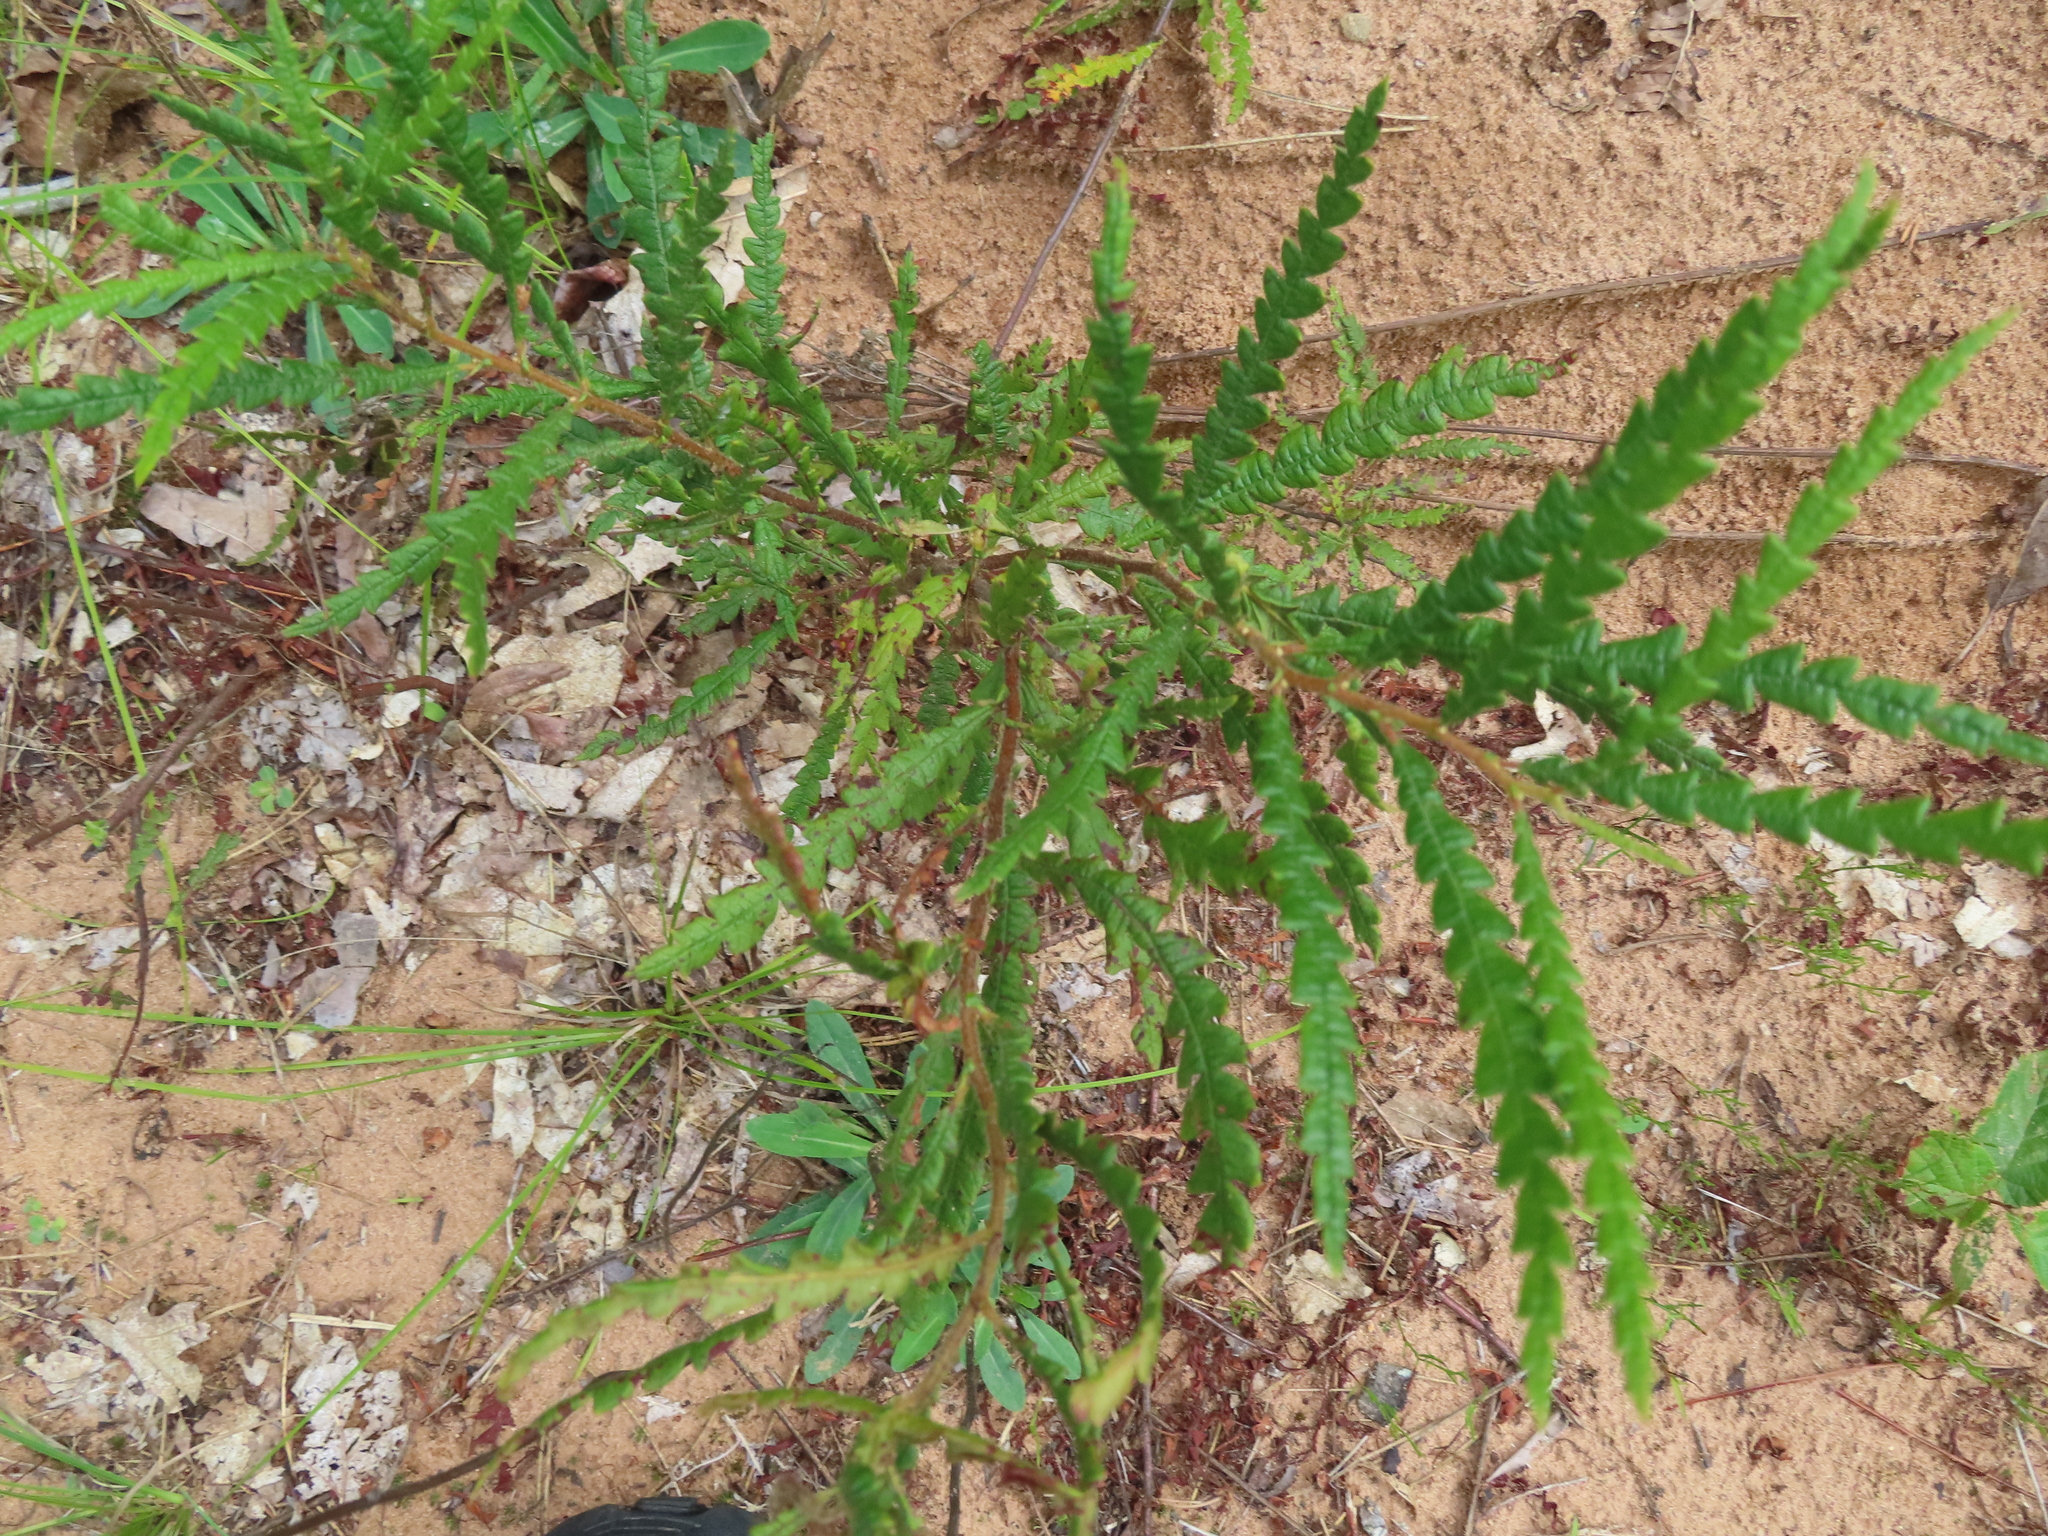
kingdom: Plantae
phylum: Tracheophyta
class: Magnoliopsida
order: Fagales
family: Myricaceae
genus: Comptonia
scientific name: Comptonia peregrina
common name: Sweet-fern
